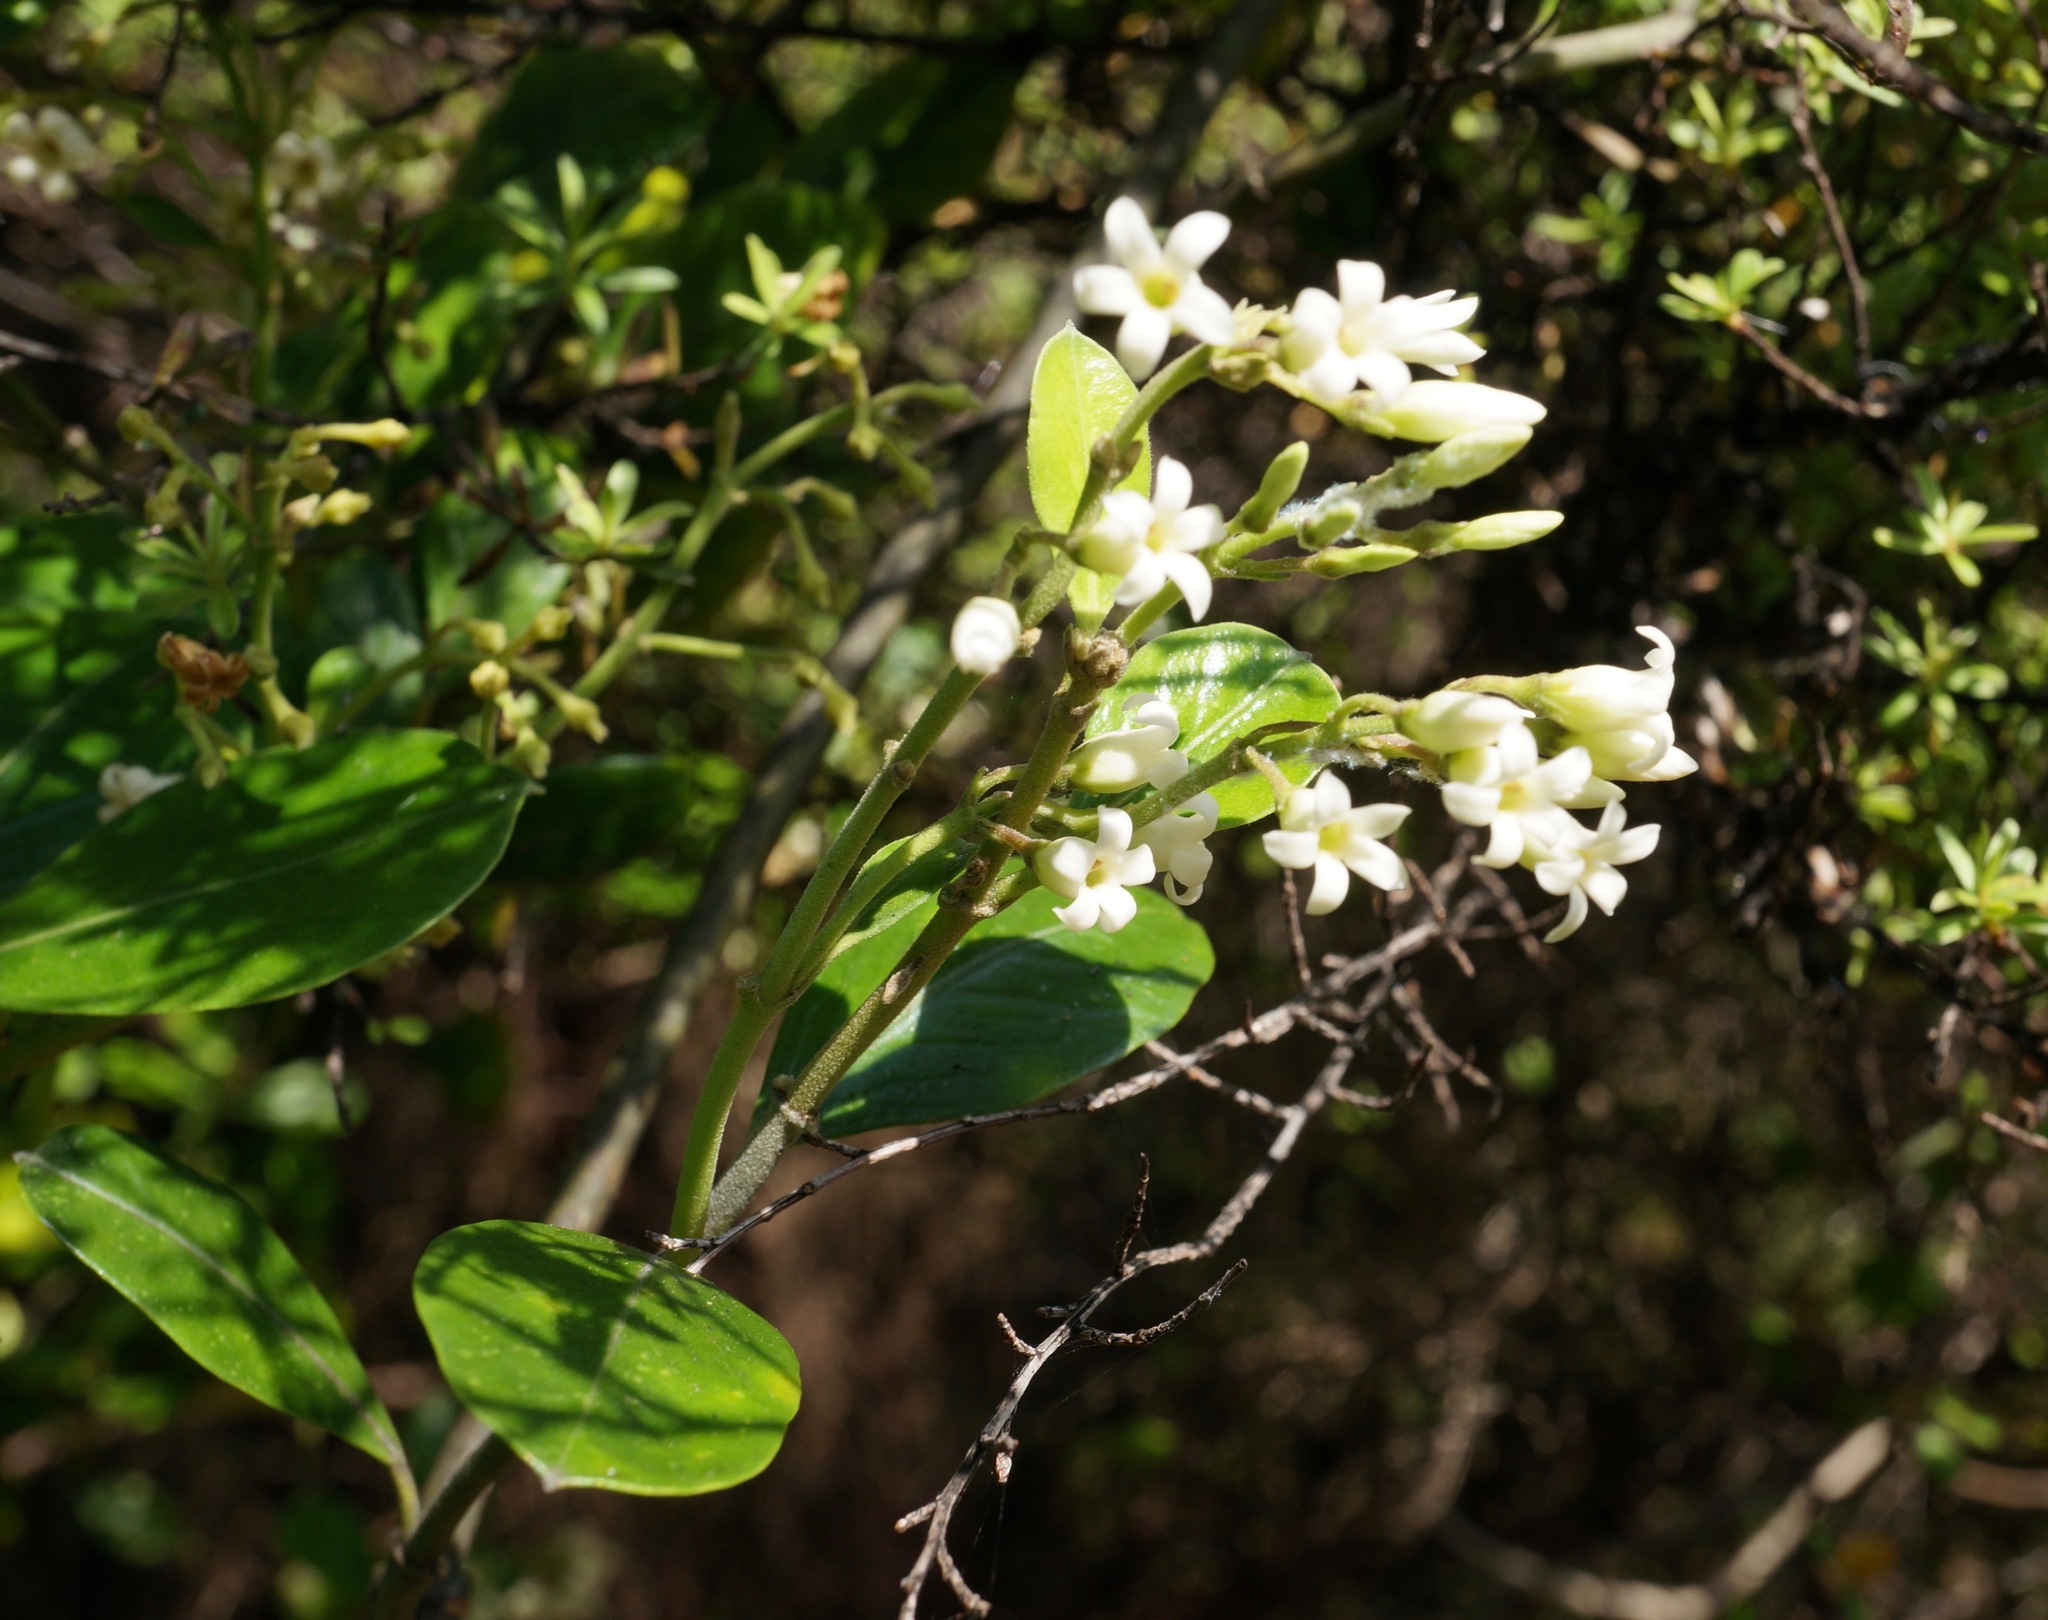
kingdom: Plantae
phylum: Tracheophyta
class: Magnoliopsida
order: Gentianales
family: Apocynaceae
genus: Parsonsia
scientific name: Parsonsia heterophylla
